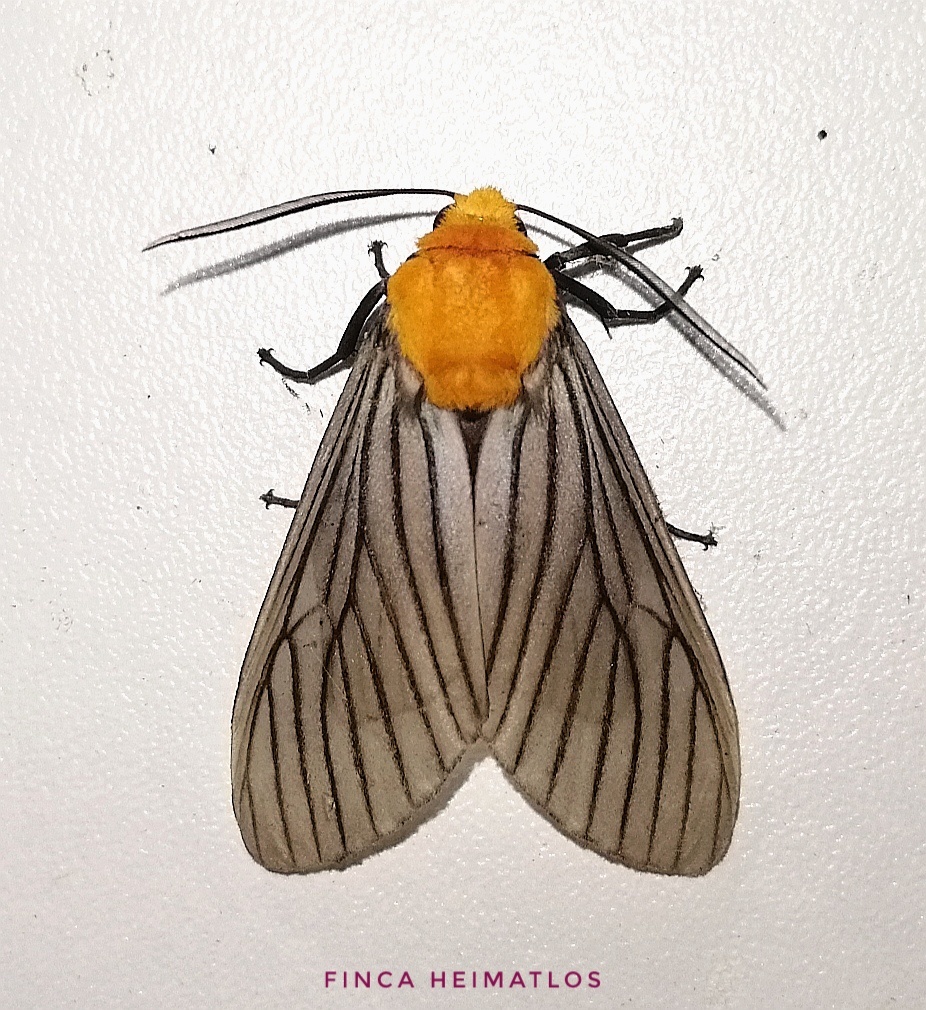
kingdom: Animalia
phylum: Arthropoda
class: Insecta
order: Lepidoptera
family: Erebidae
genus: Pseudischnocampa
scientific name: Pseudischnocampa humosa
